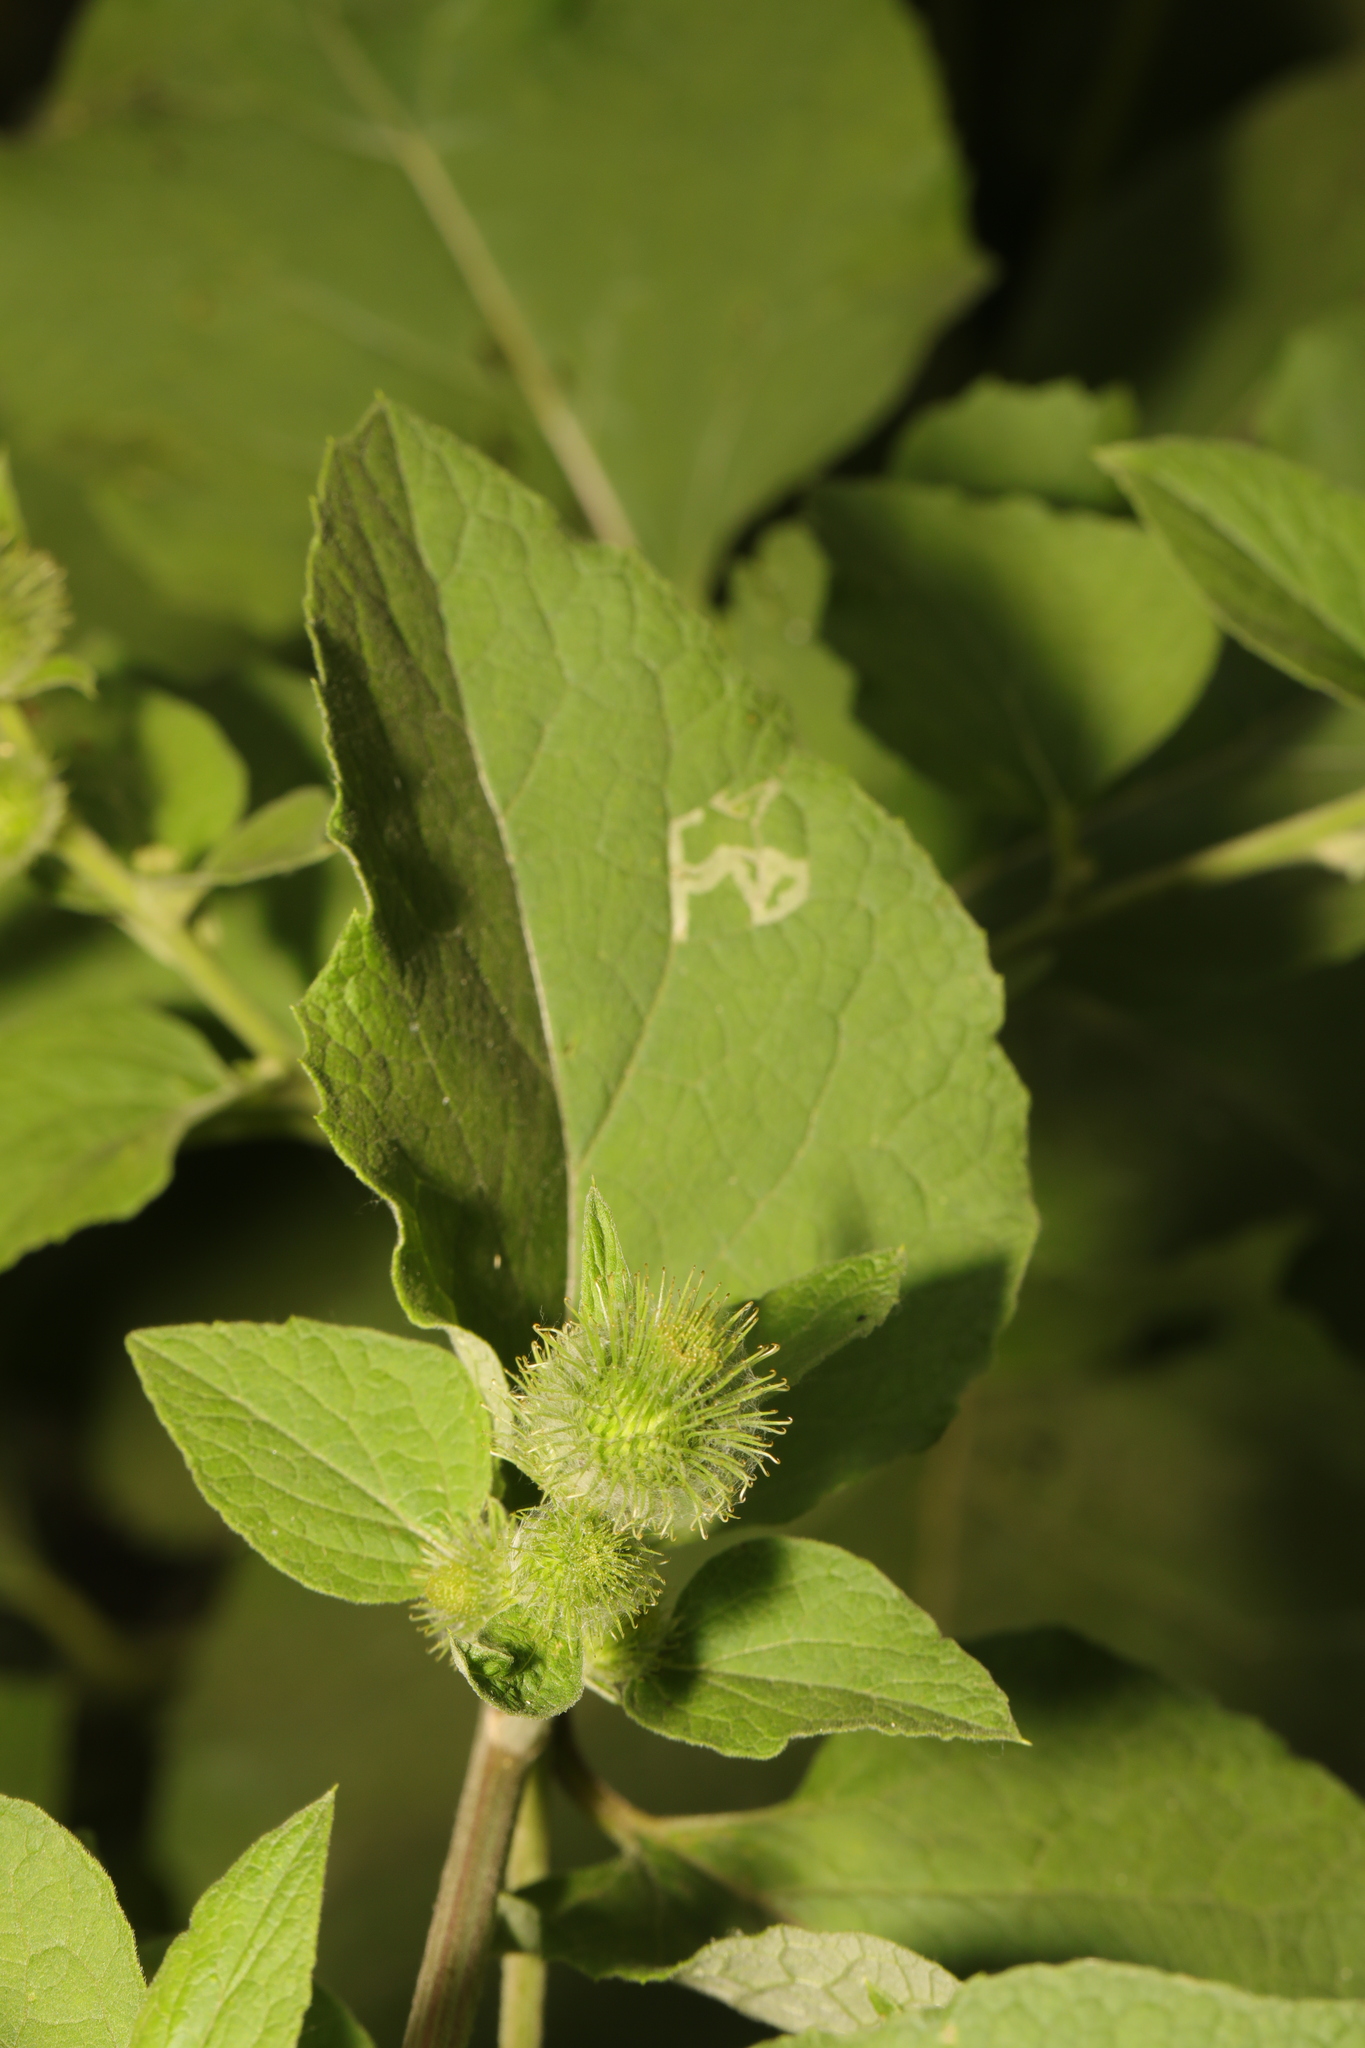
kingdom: Plantae
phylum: Tracheophyta
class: Magnoliopsida
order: Asterales
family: Asteraceae
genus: Arctium
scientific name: Arctium minus
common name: Lesser burdock
